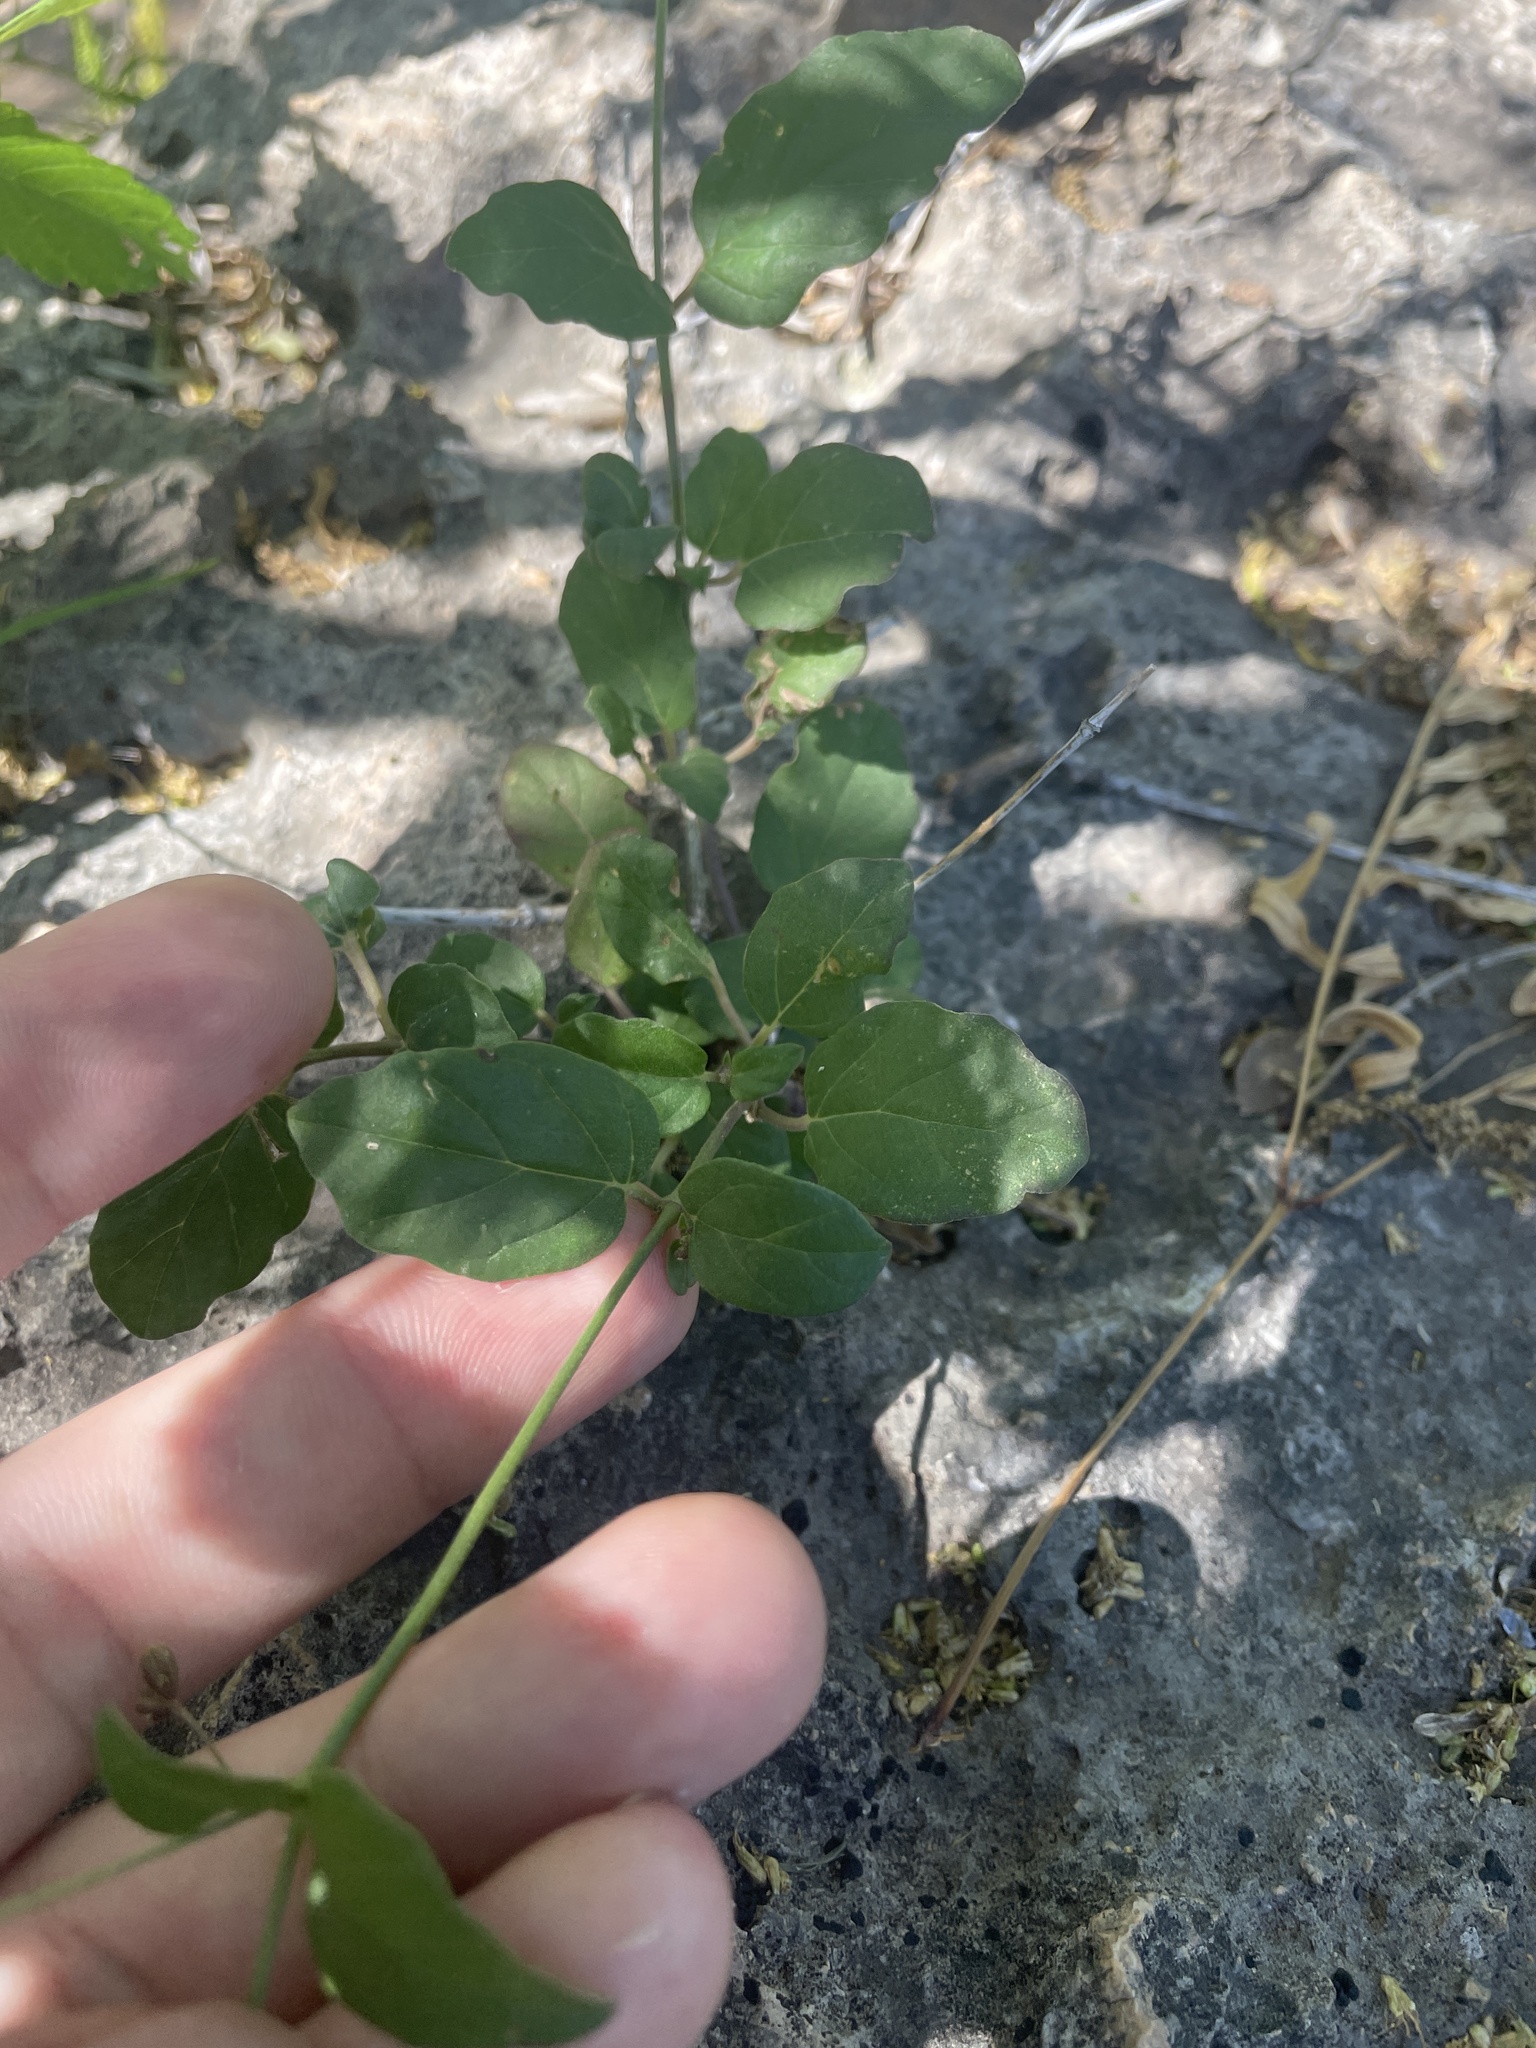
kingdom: Plantae
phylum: Tracheophyta
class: Magnoliopsida
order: Caryophyllales
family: Nyctaginaceae
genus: Boerhavia
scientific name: Boerhavia coccinea
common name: Scarlet spiderling
